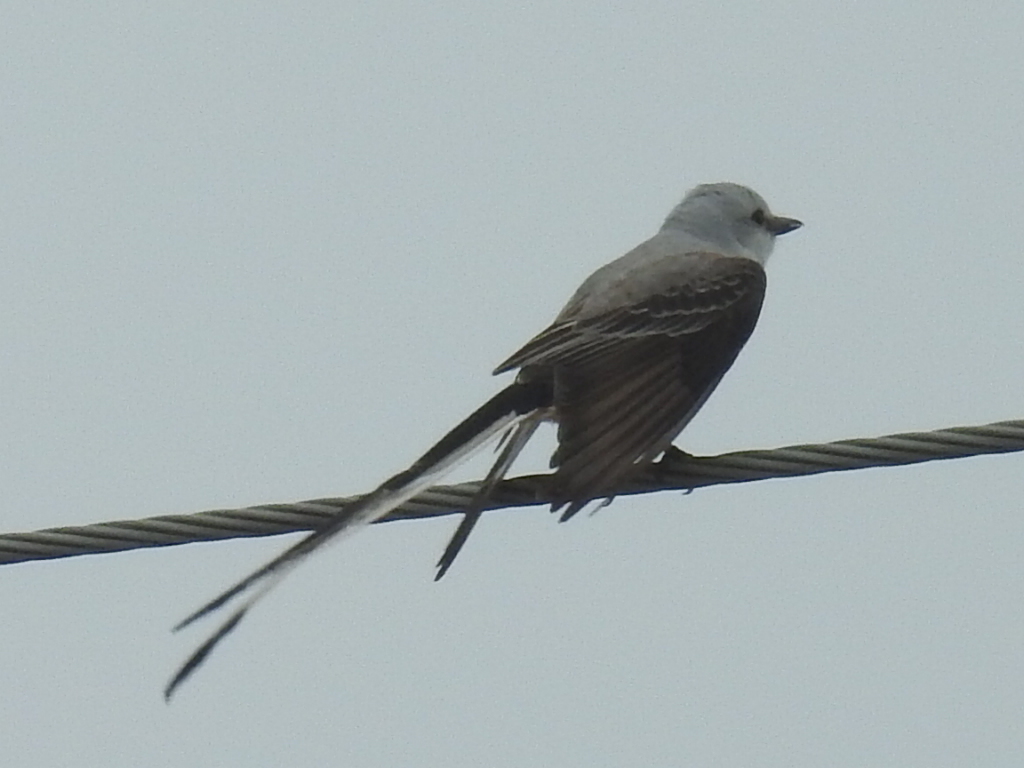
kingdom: Animalia
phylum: Chordata
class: Aves
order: Passeriformes
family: Tyrannidae
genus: Tyrannus
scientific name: Tyrannus forficatus
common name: Scissor-tailed flycatcher
